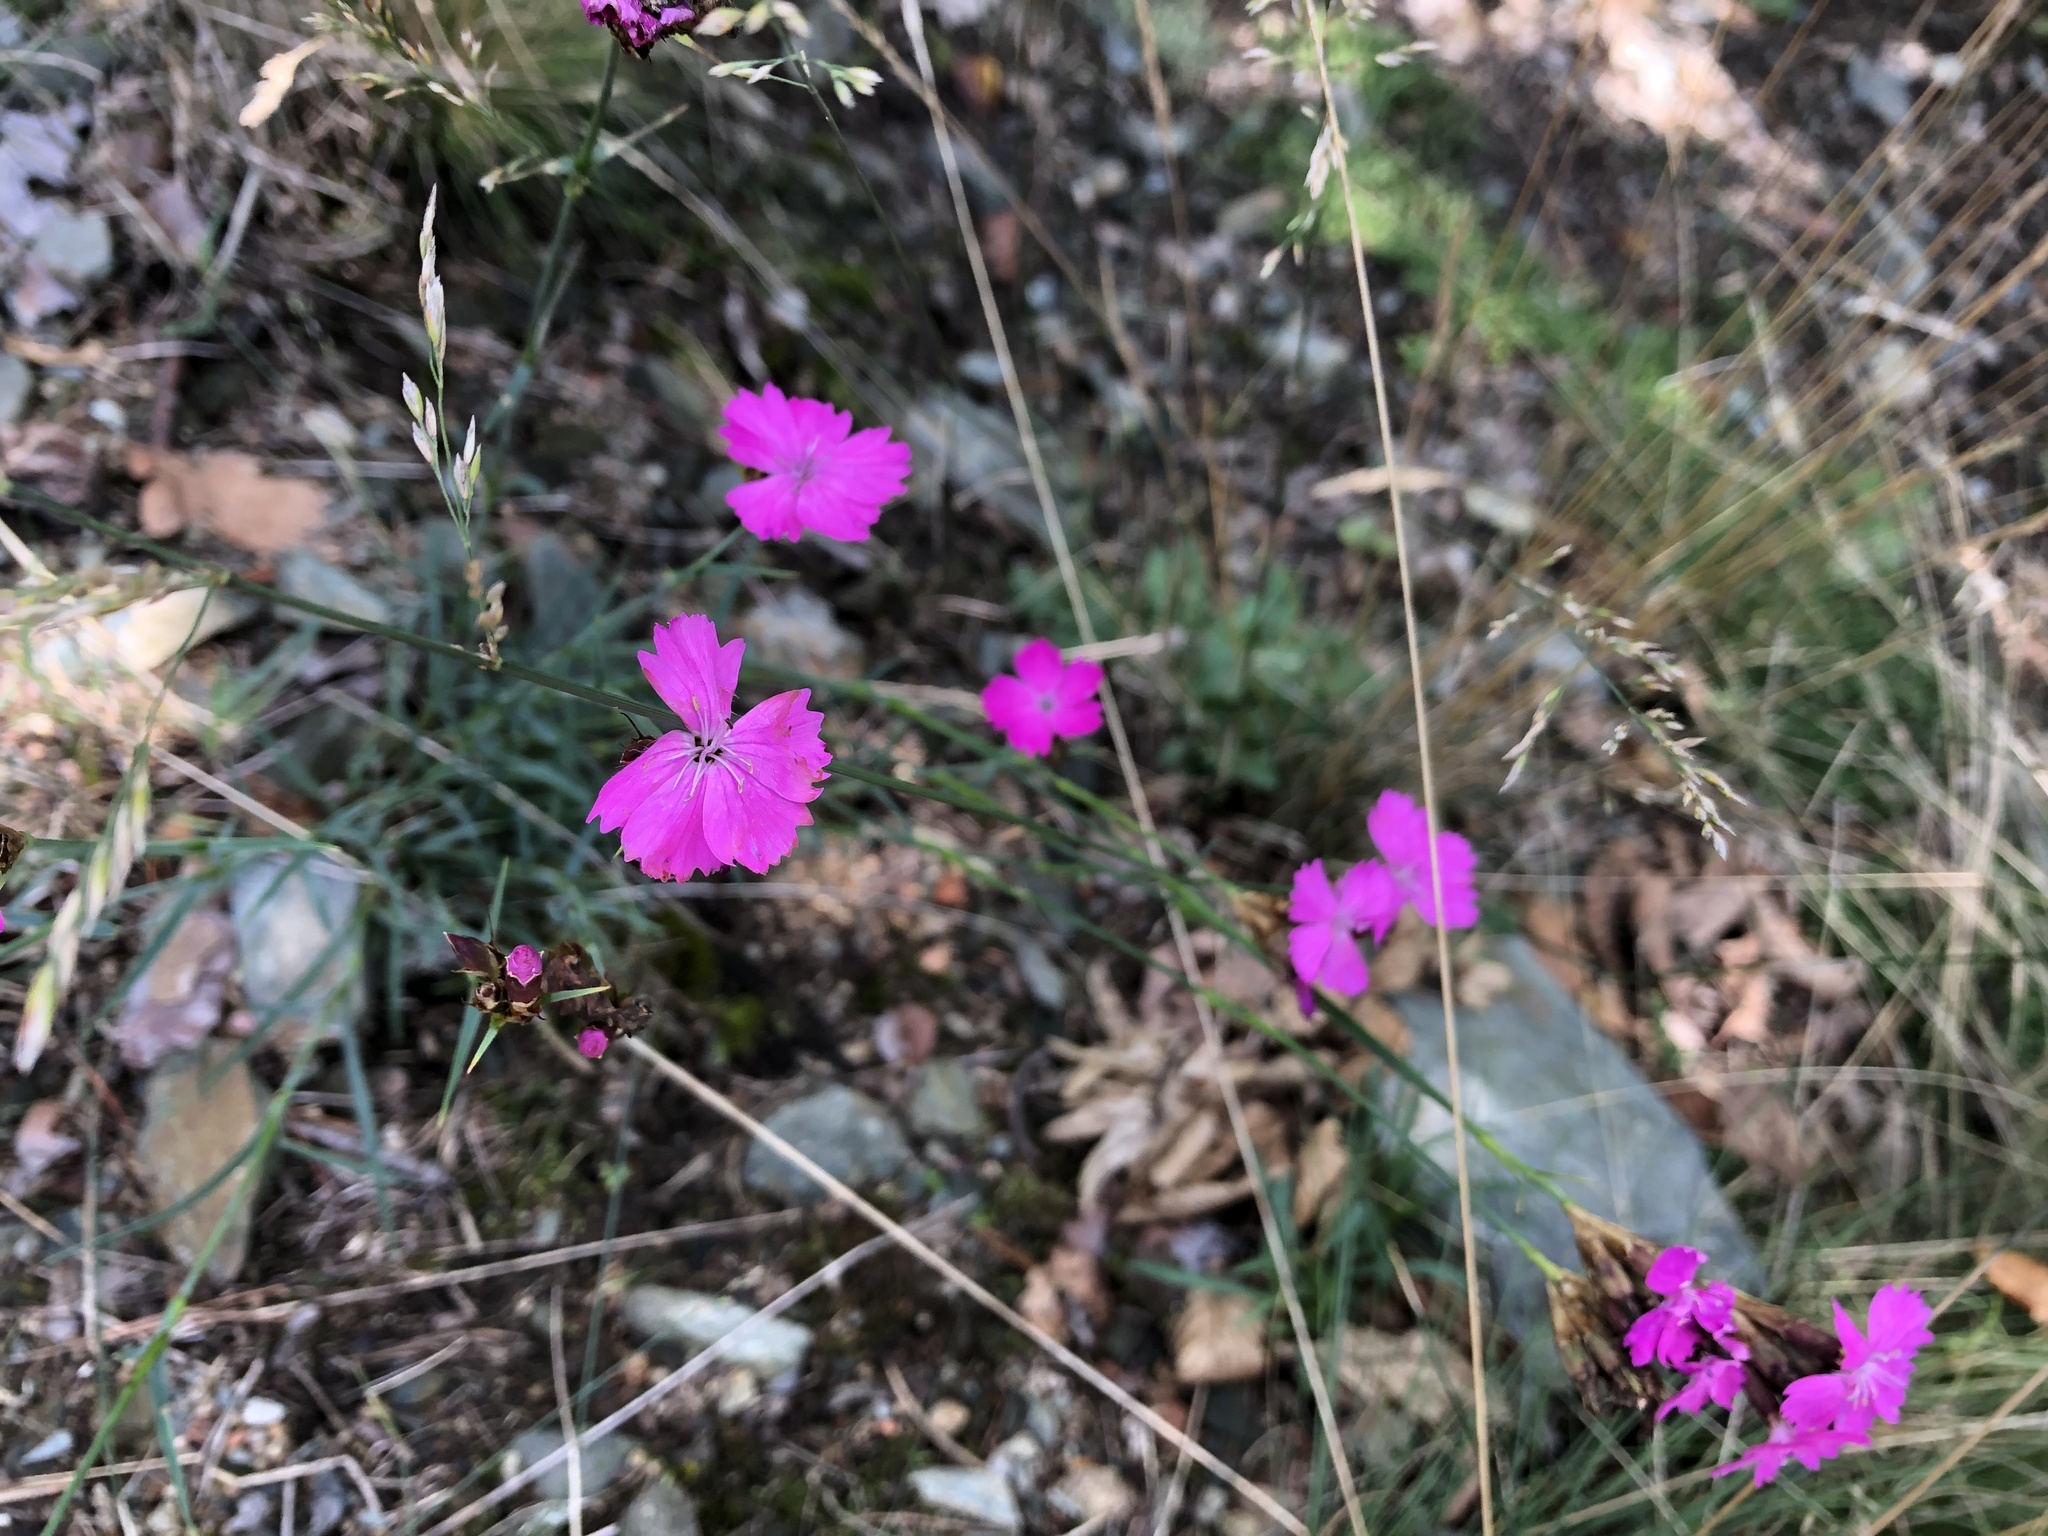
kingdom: Plantae
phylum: Tracheophyta
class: Magnoliopsida
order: Caryophyllales
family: Caryophyllaceae
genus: Dianthus
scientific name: Dianthus carthusianorum
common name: Carthusian pink
